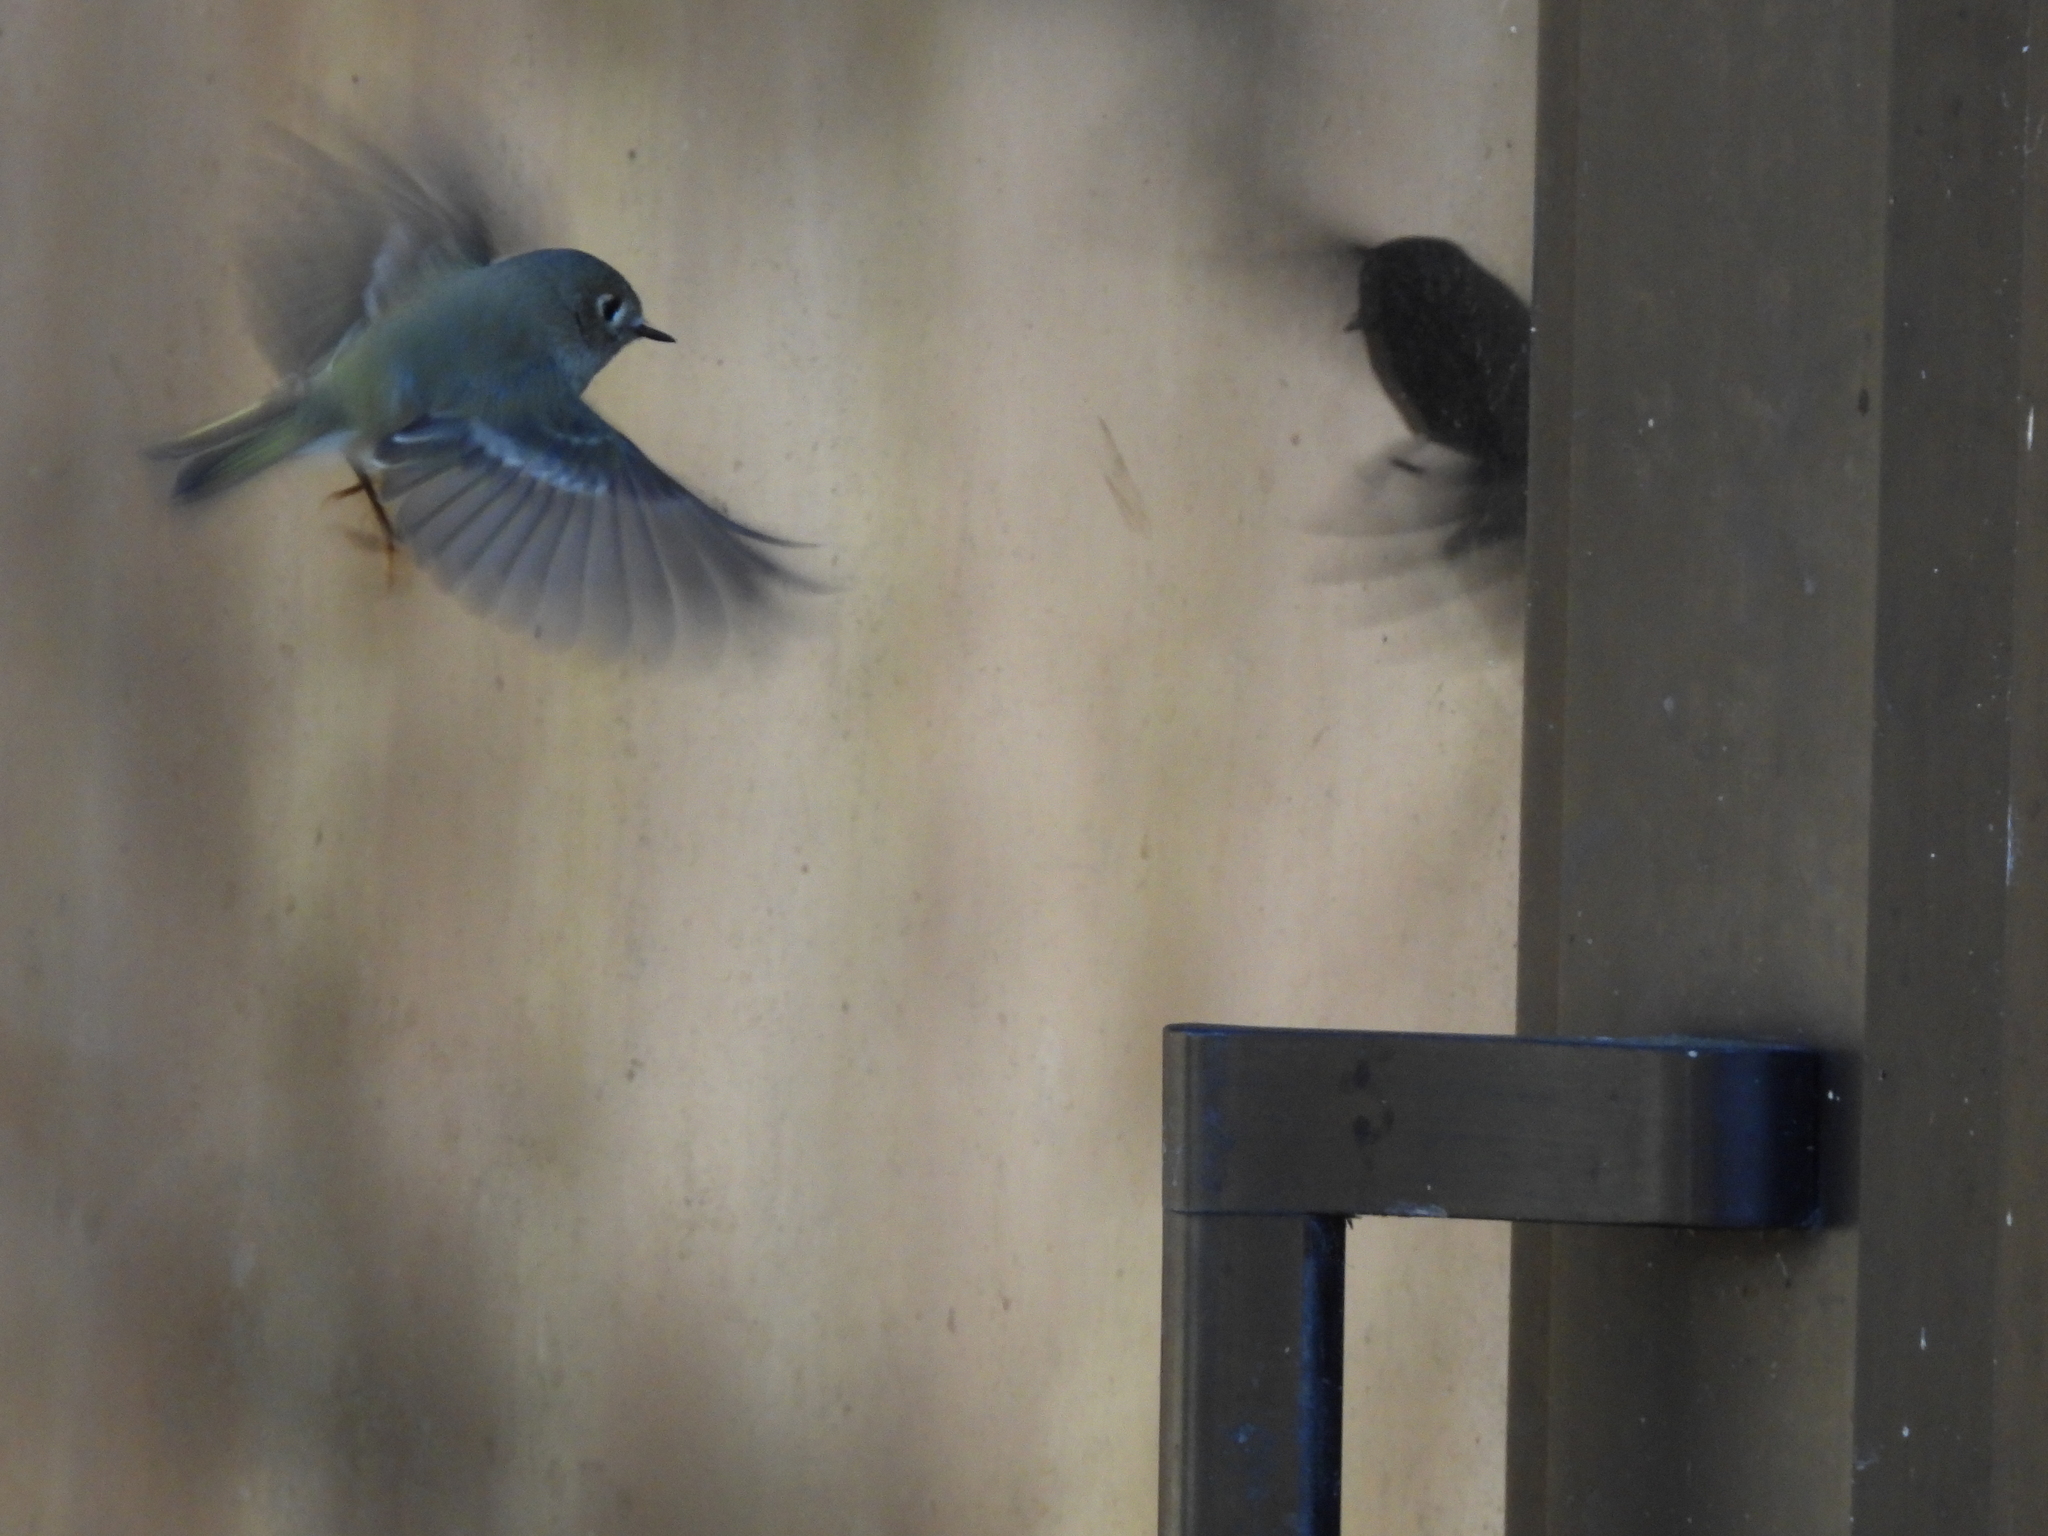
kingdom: Animalia
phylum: Chordata
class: Aves
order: Passeriformes
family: Regulidae
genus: Regulus
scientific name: Regulus calendula
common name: Ruby-crowned kinglet
